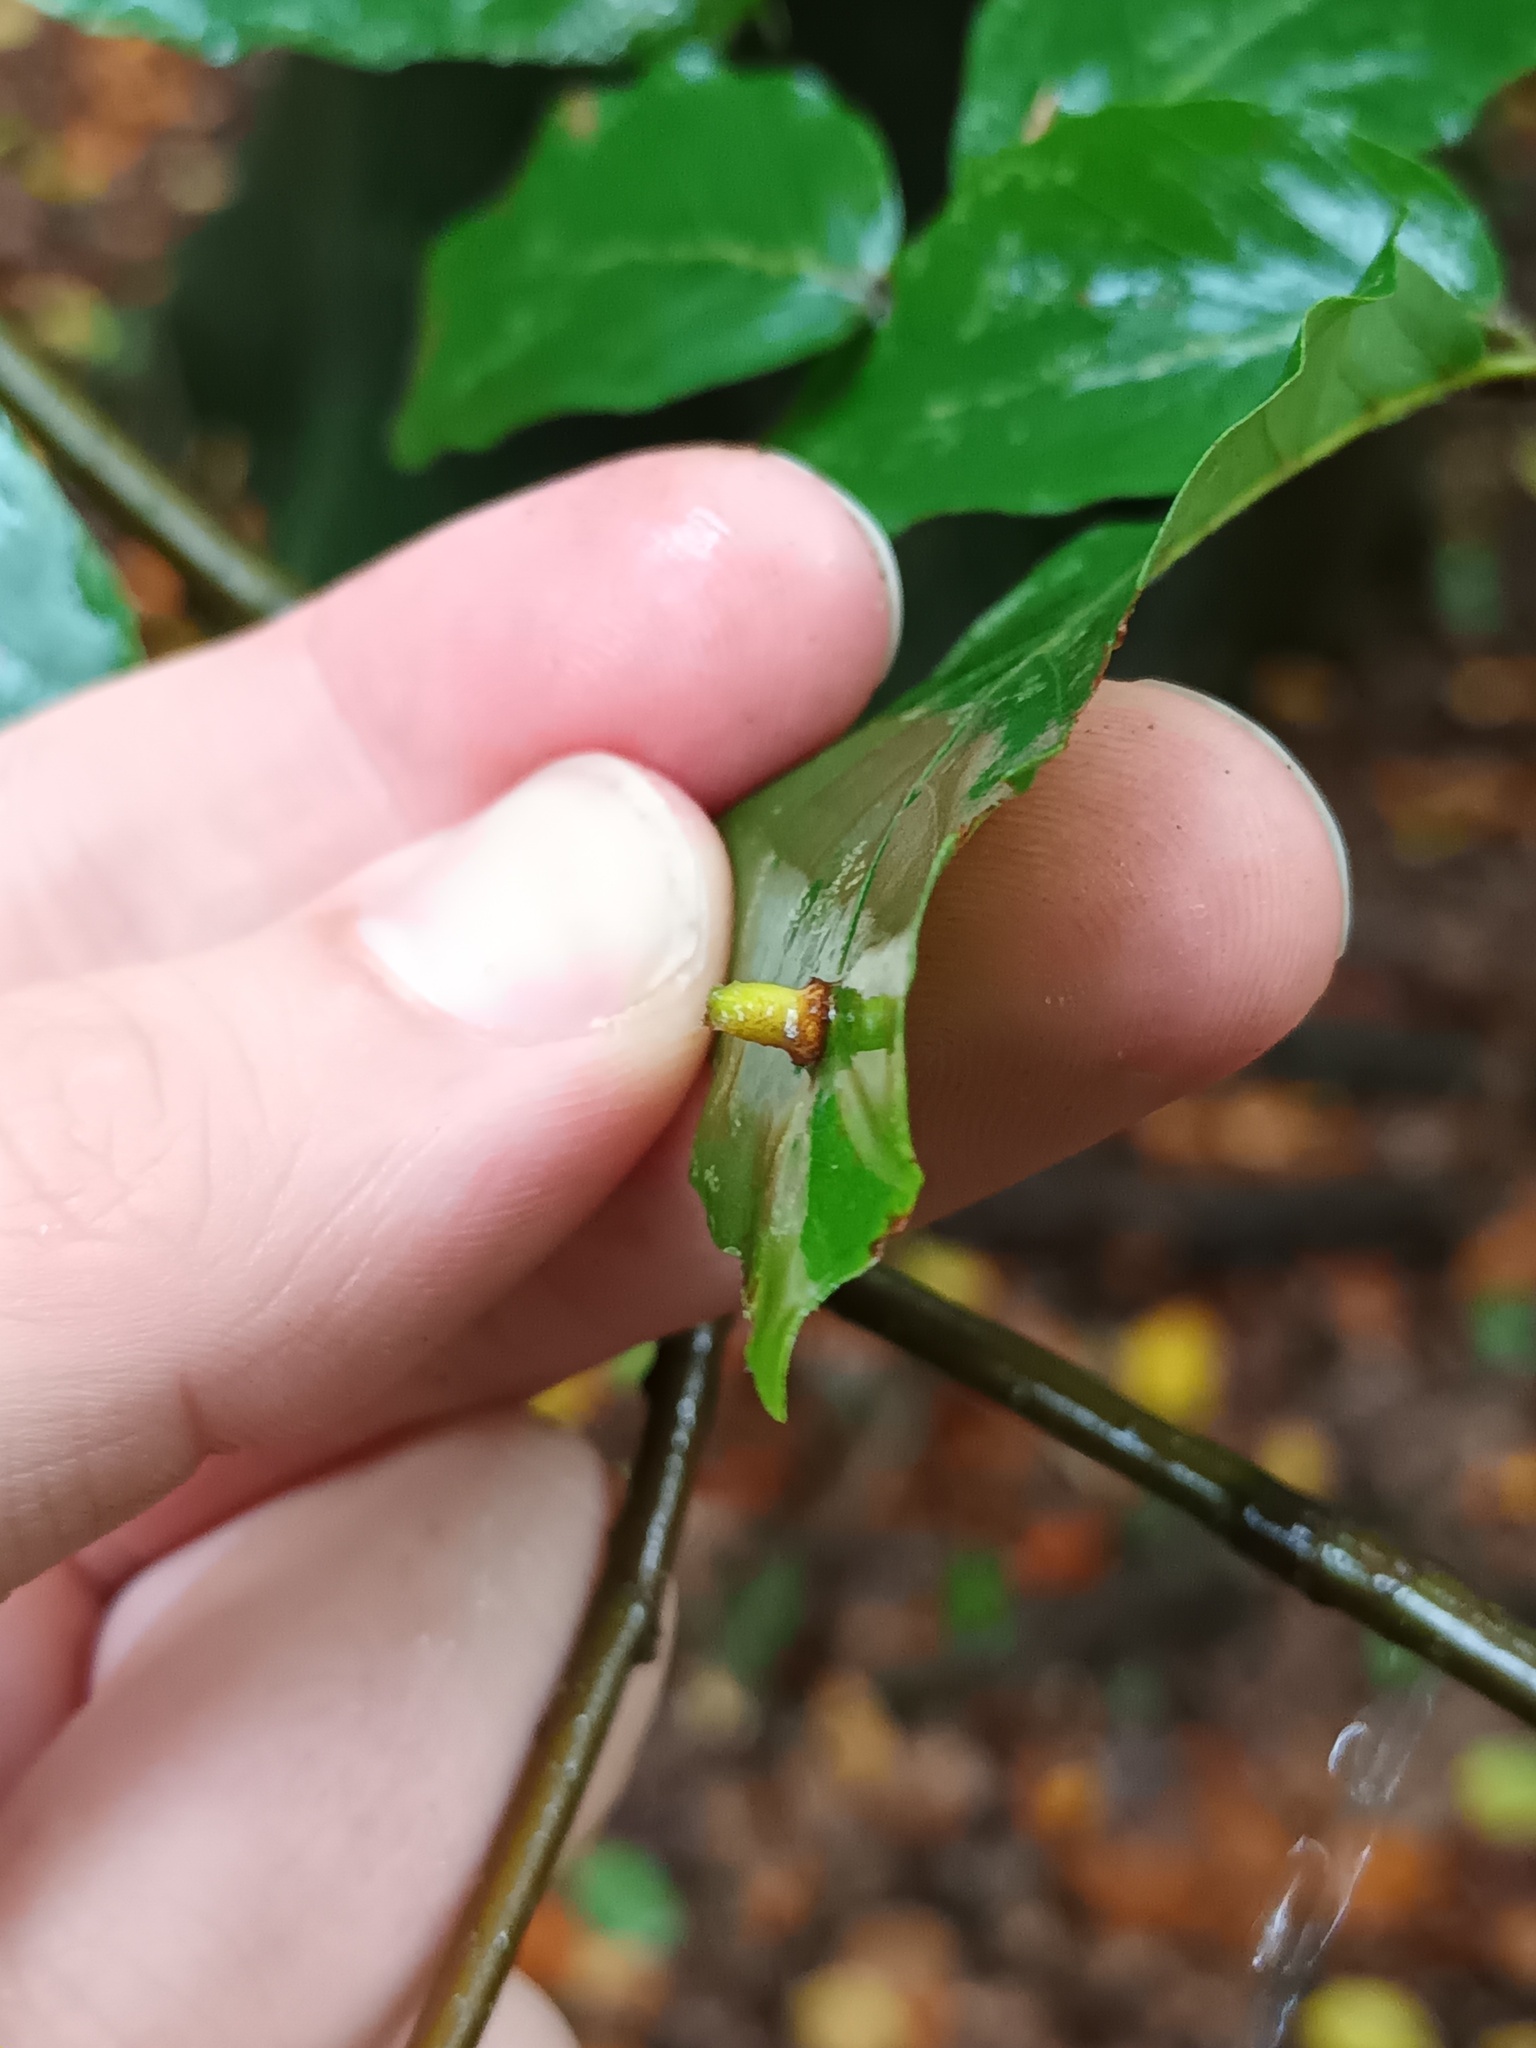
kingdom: Animalia
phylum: Arthropoda
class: Insecta
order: Diptera
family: Cecidomyiidae
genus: Mikiola
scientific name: Mikiola fagi
